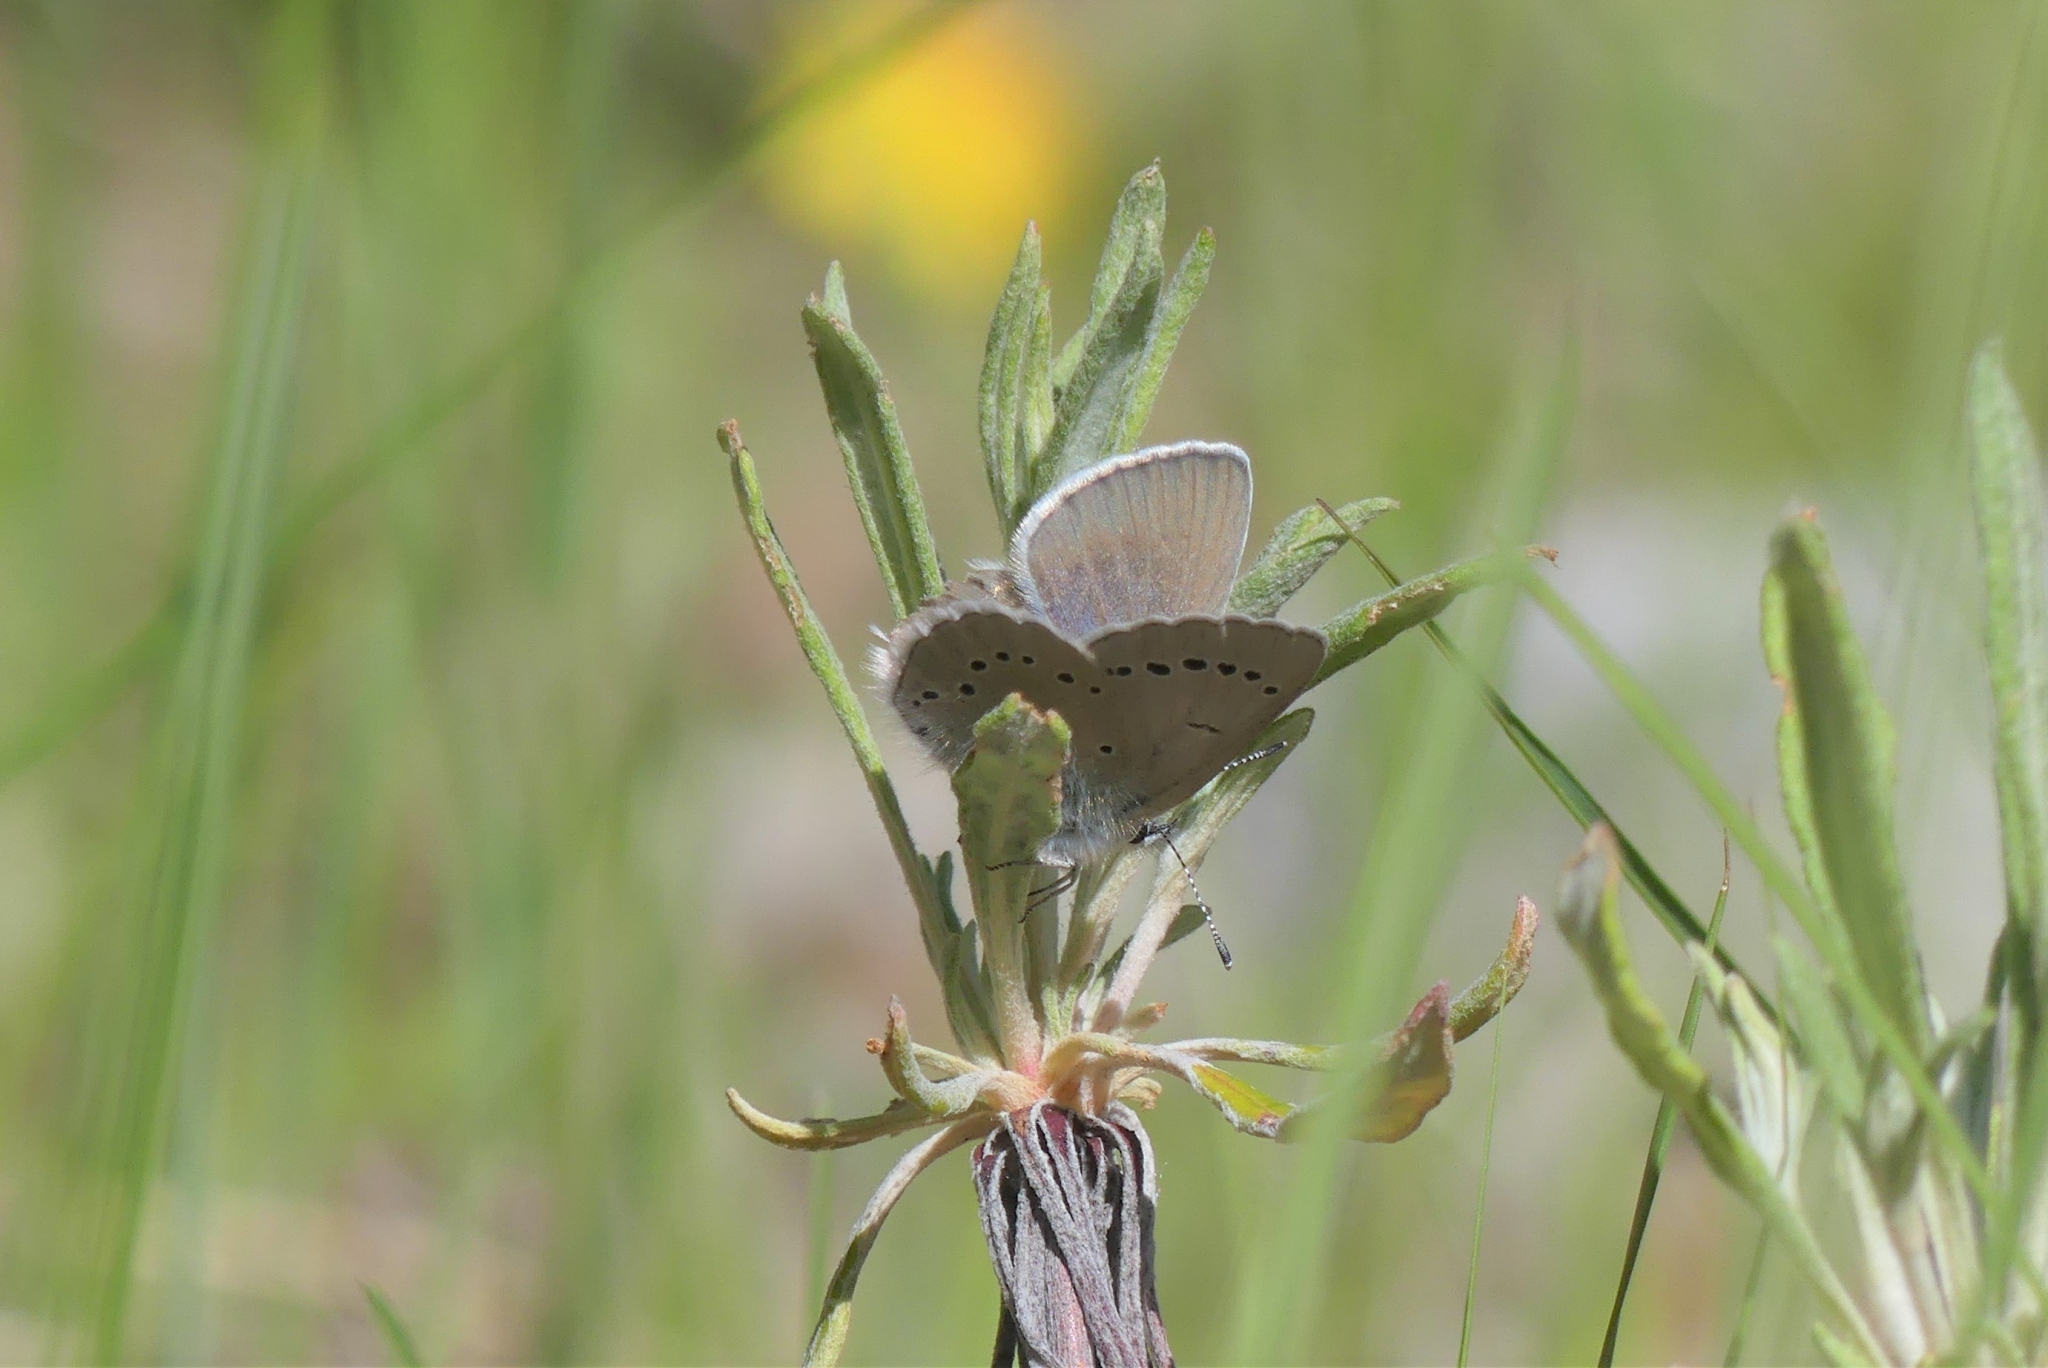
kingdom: Animalia
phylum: Arthropoda
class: Insecta
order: Lepidoptera
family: Lycaenidae
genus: Glaucopsyche
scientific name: Glaucopsyche lygdamus
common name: Silvery blue
